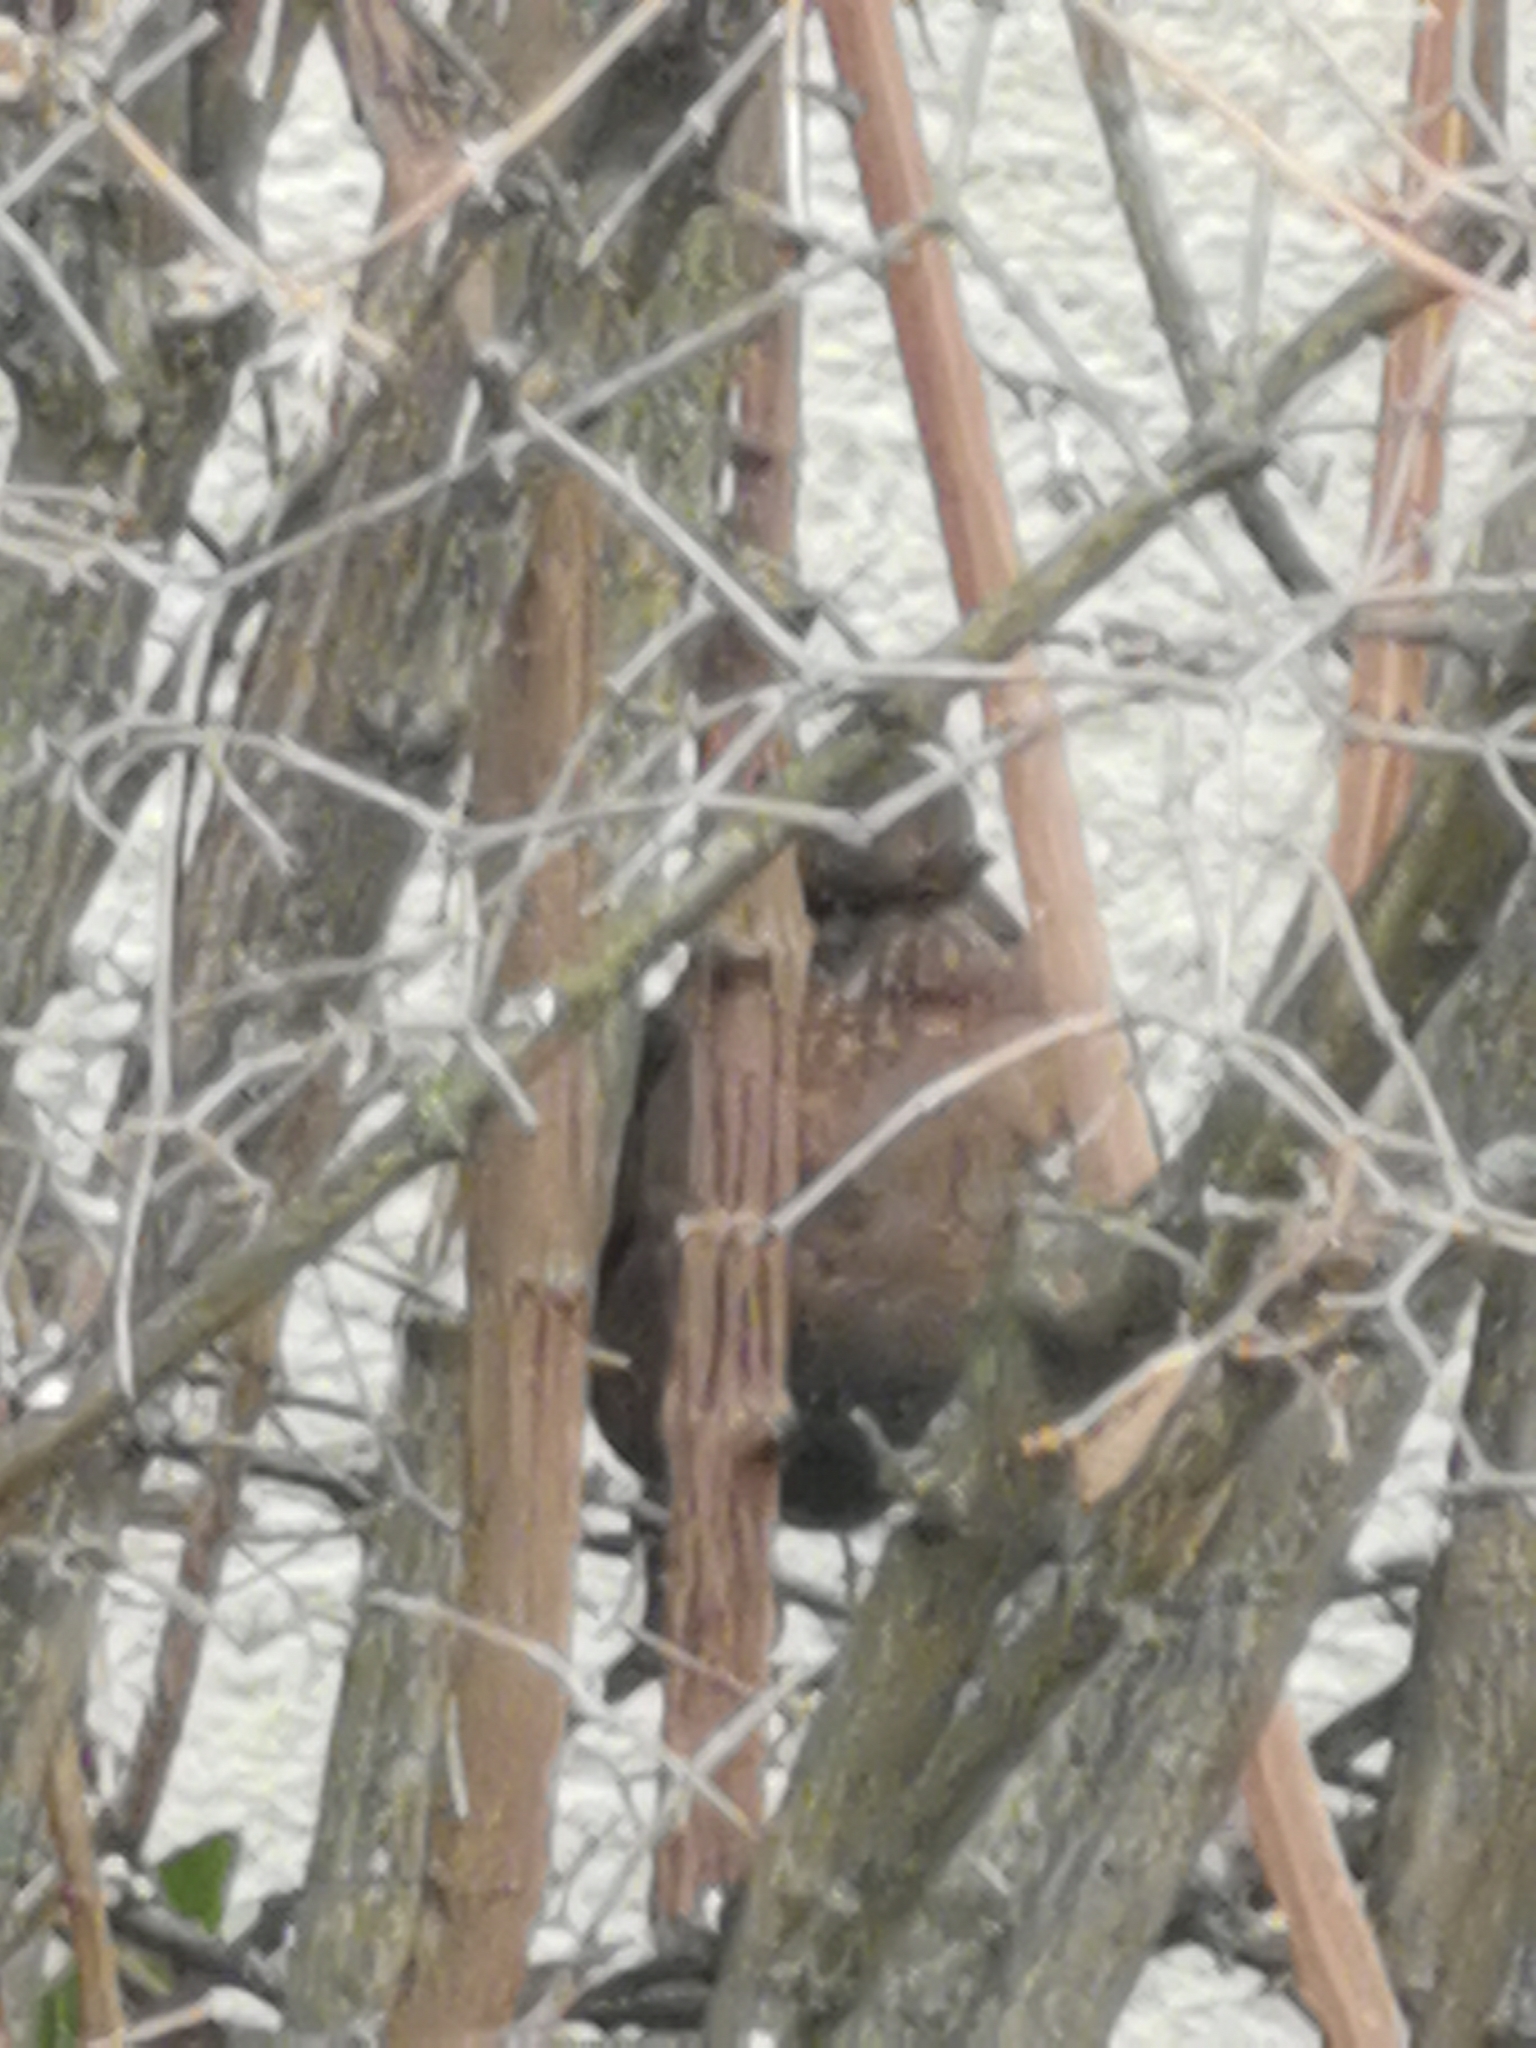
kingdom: Animalia
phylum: Chordata
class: Aves
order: Passeriformes
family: Turdidae
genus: Turdus
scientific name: Turdus merula
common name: Common blackbird
